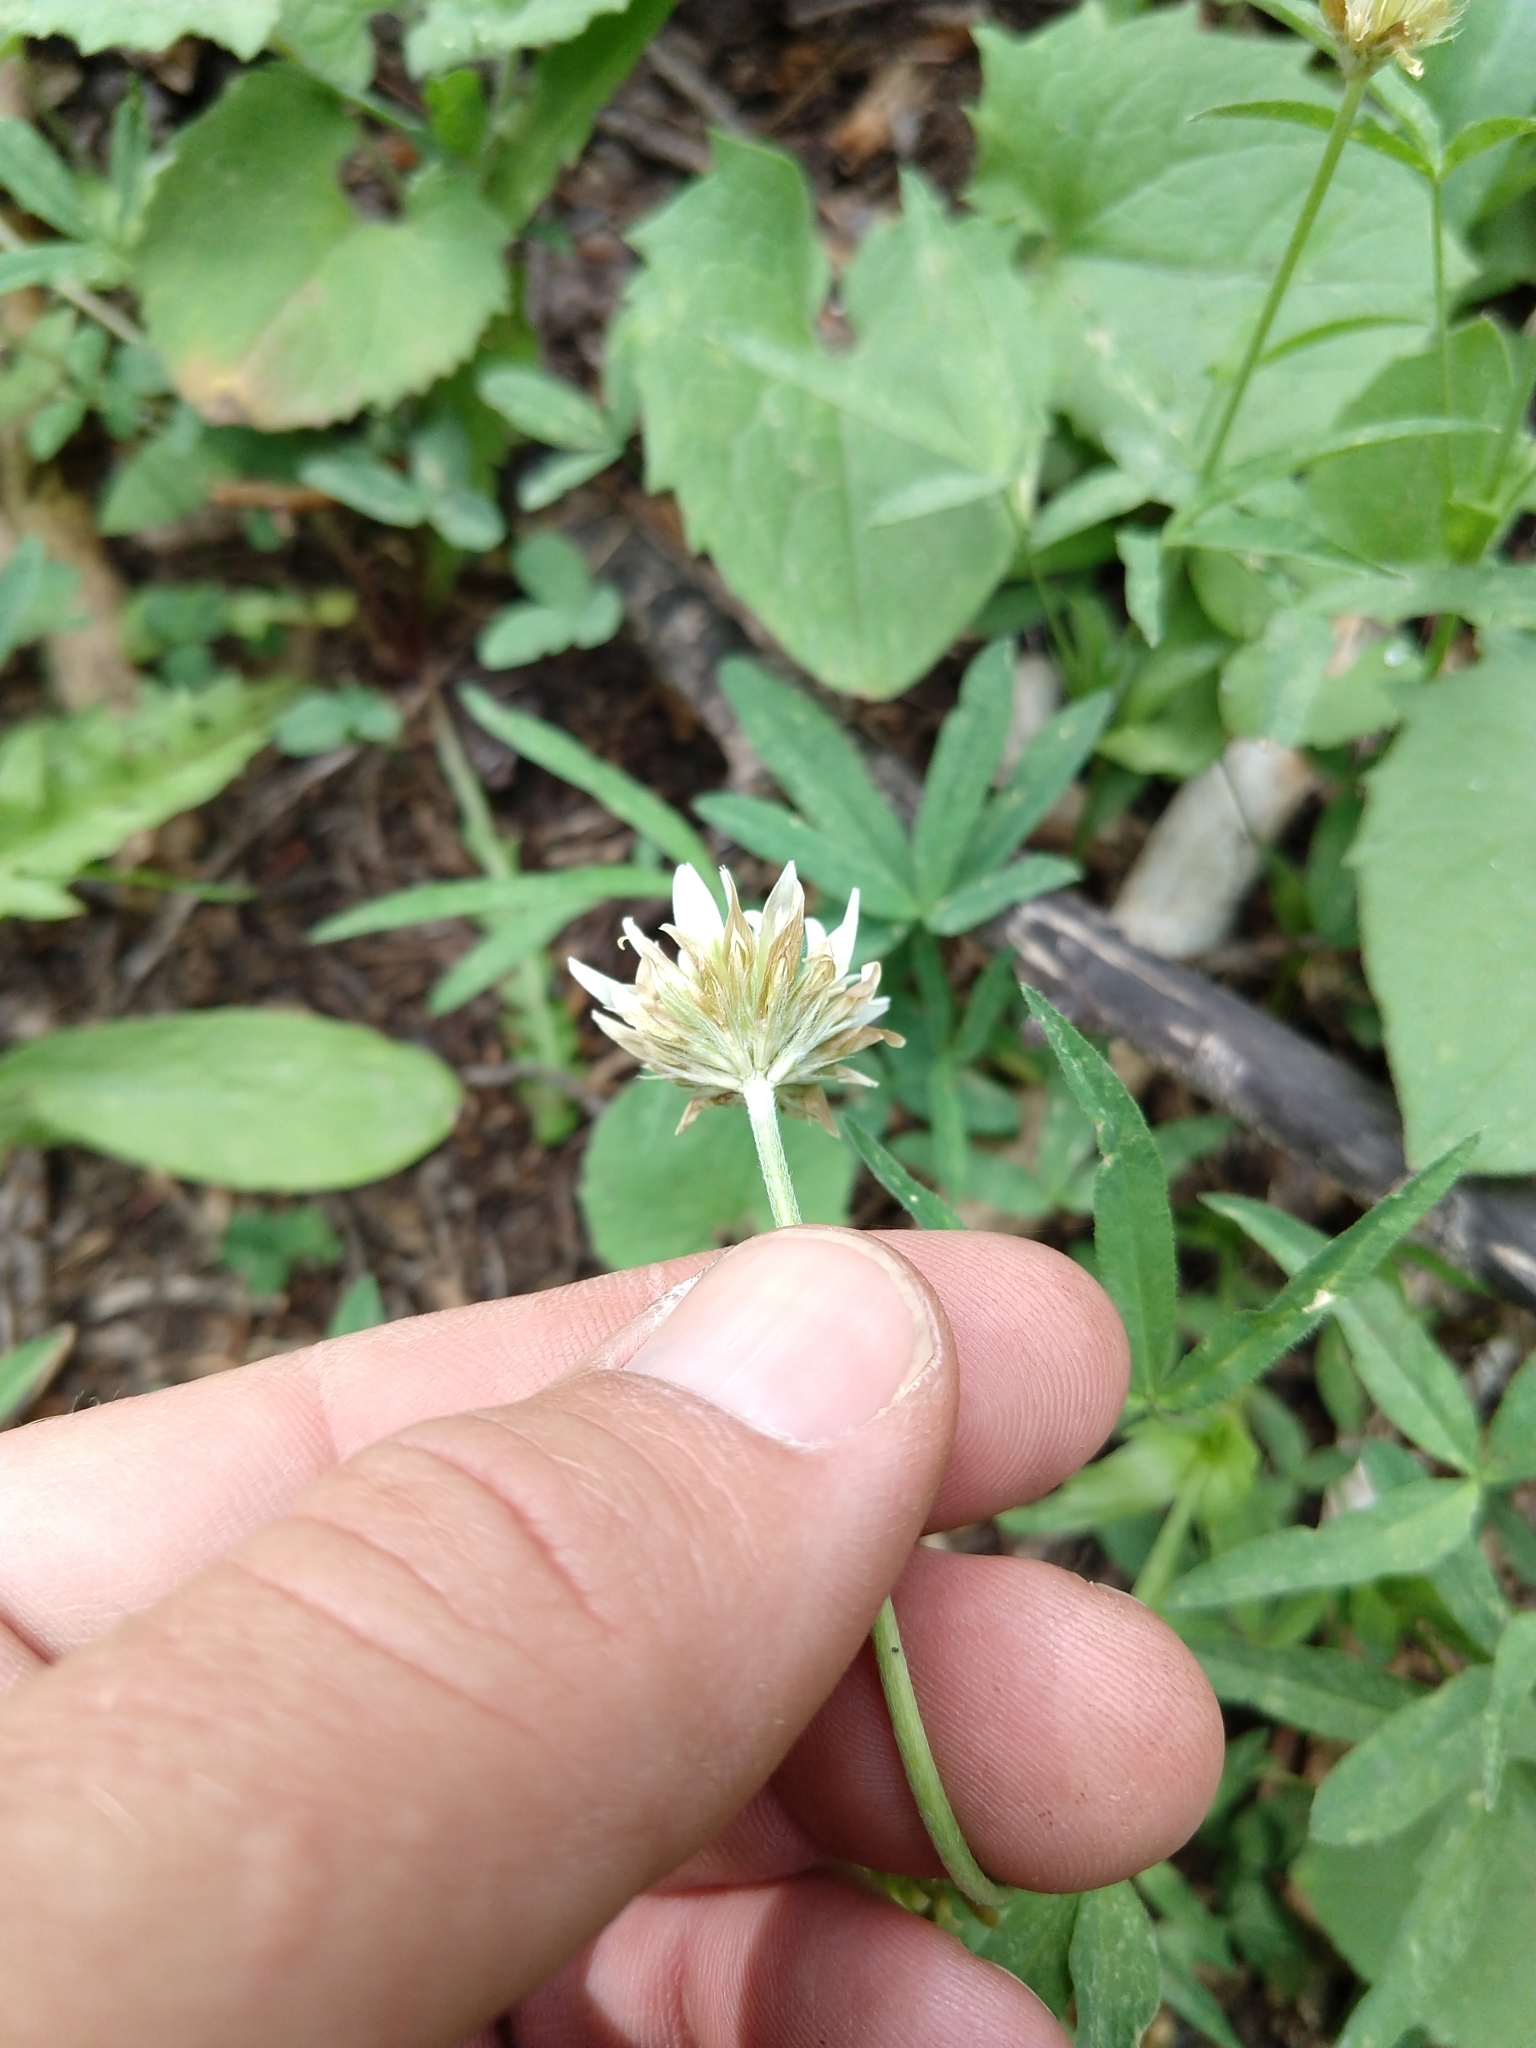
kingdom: Plantae
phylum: Tracheophyta
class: Magnoliopsida
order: Fabales
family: Fabaceae
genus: Trifolium
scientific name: Trifolium longipes
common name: Long-stalk clover
